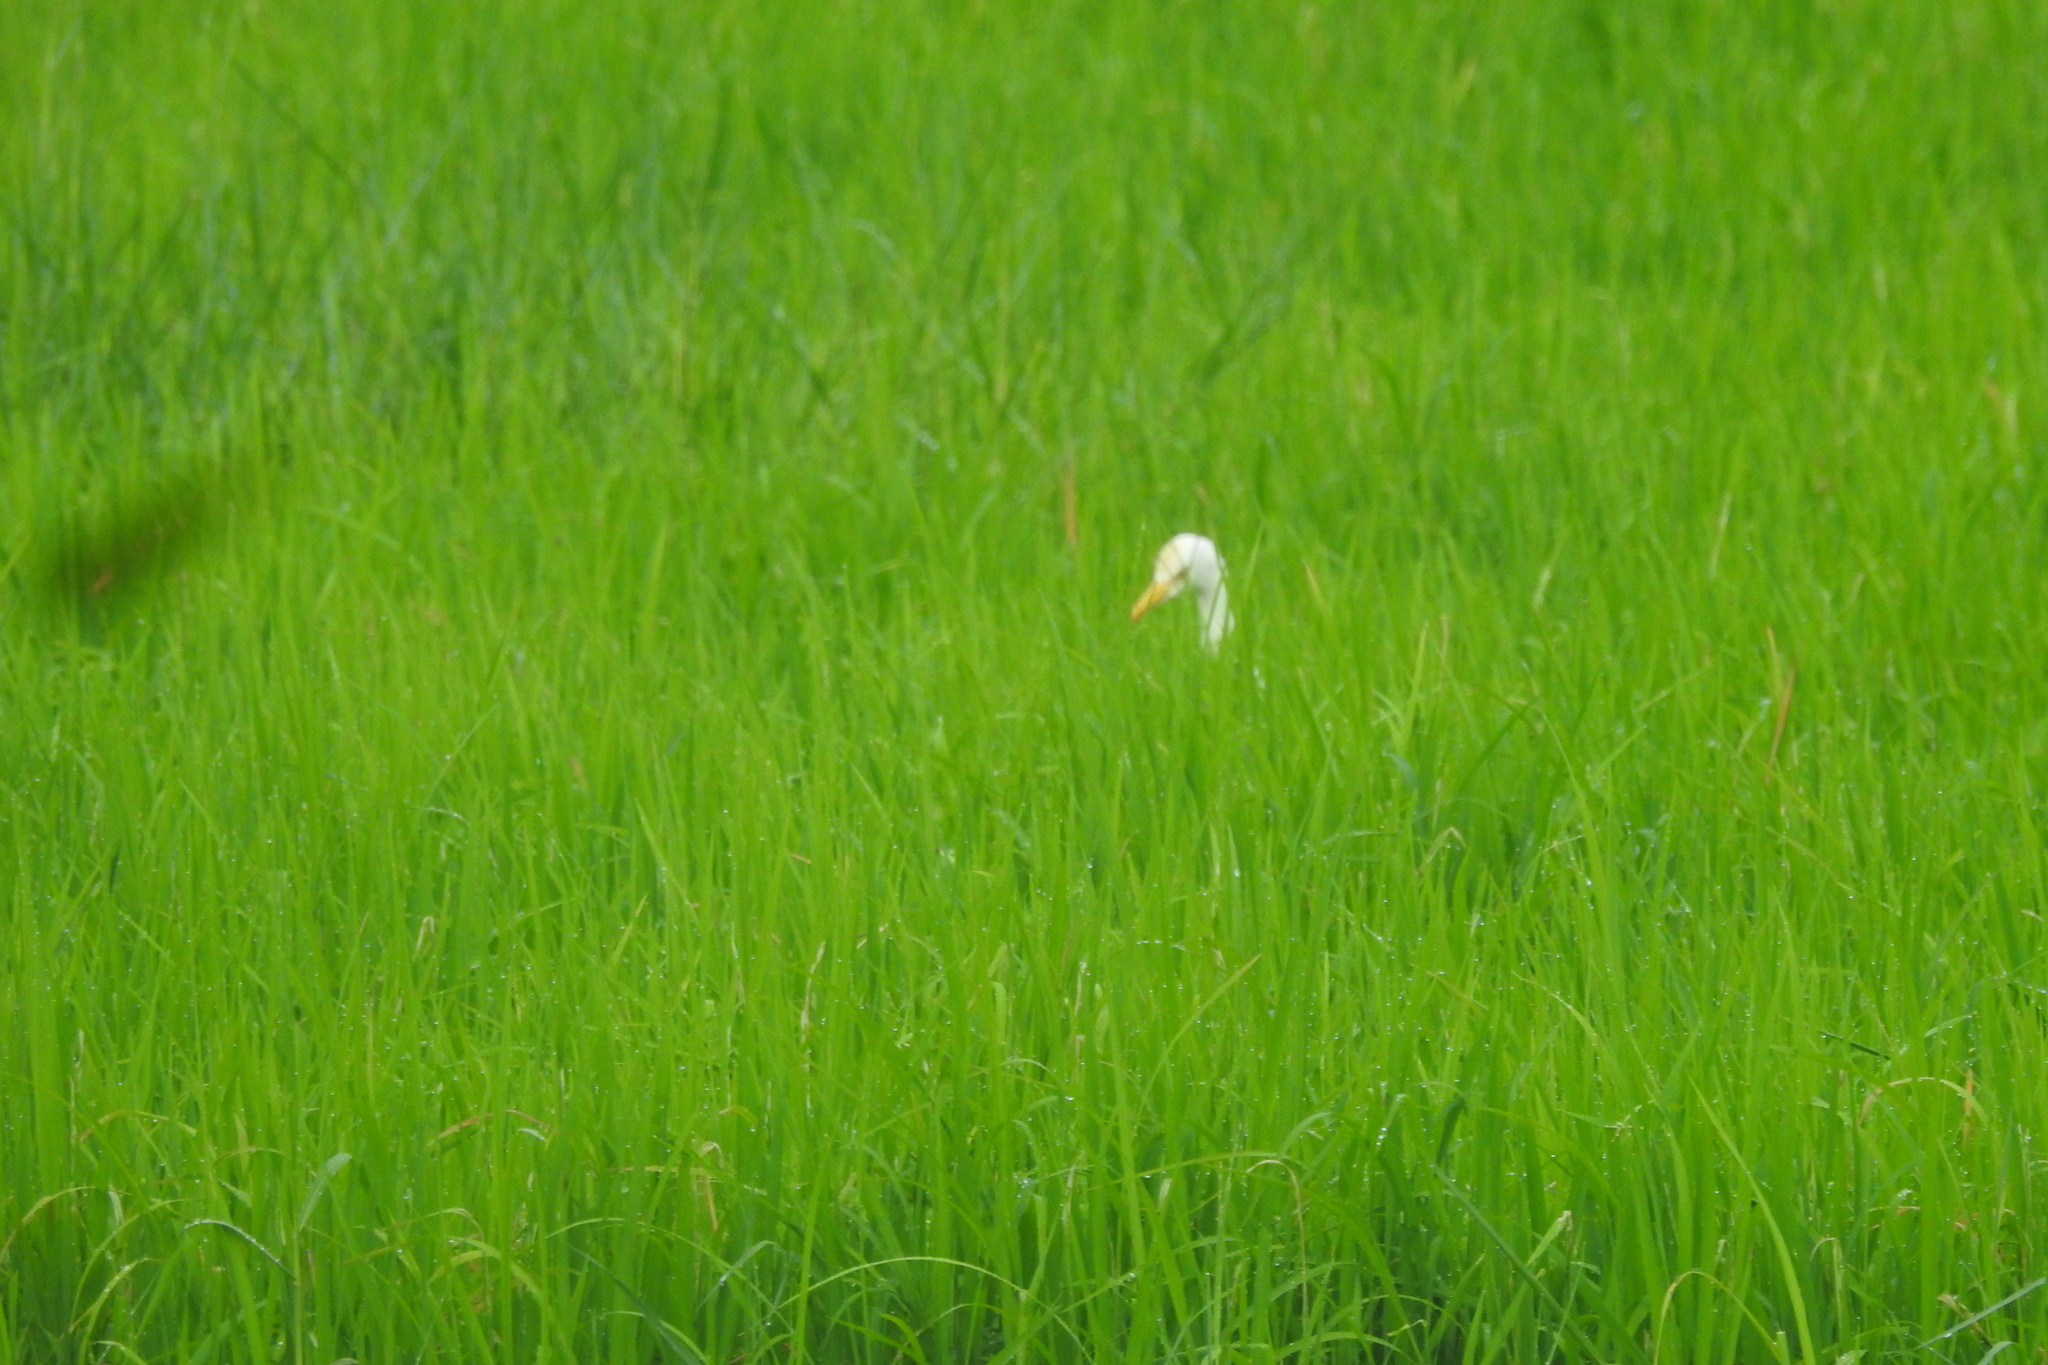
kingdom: Animalia
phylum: Chordata
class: Aves
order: Pelecaniformes
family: Ardeidae
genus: Bubulcus
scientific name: Bubulcus coromandus
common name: Eastern cattle egret
